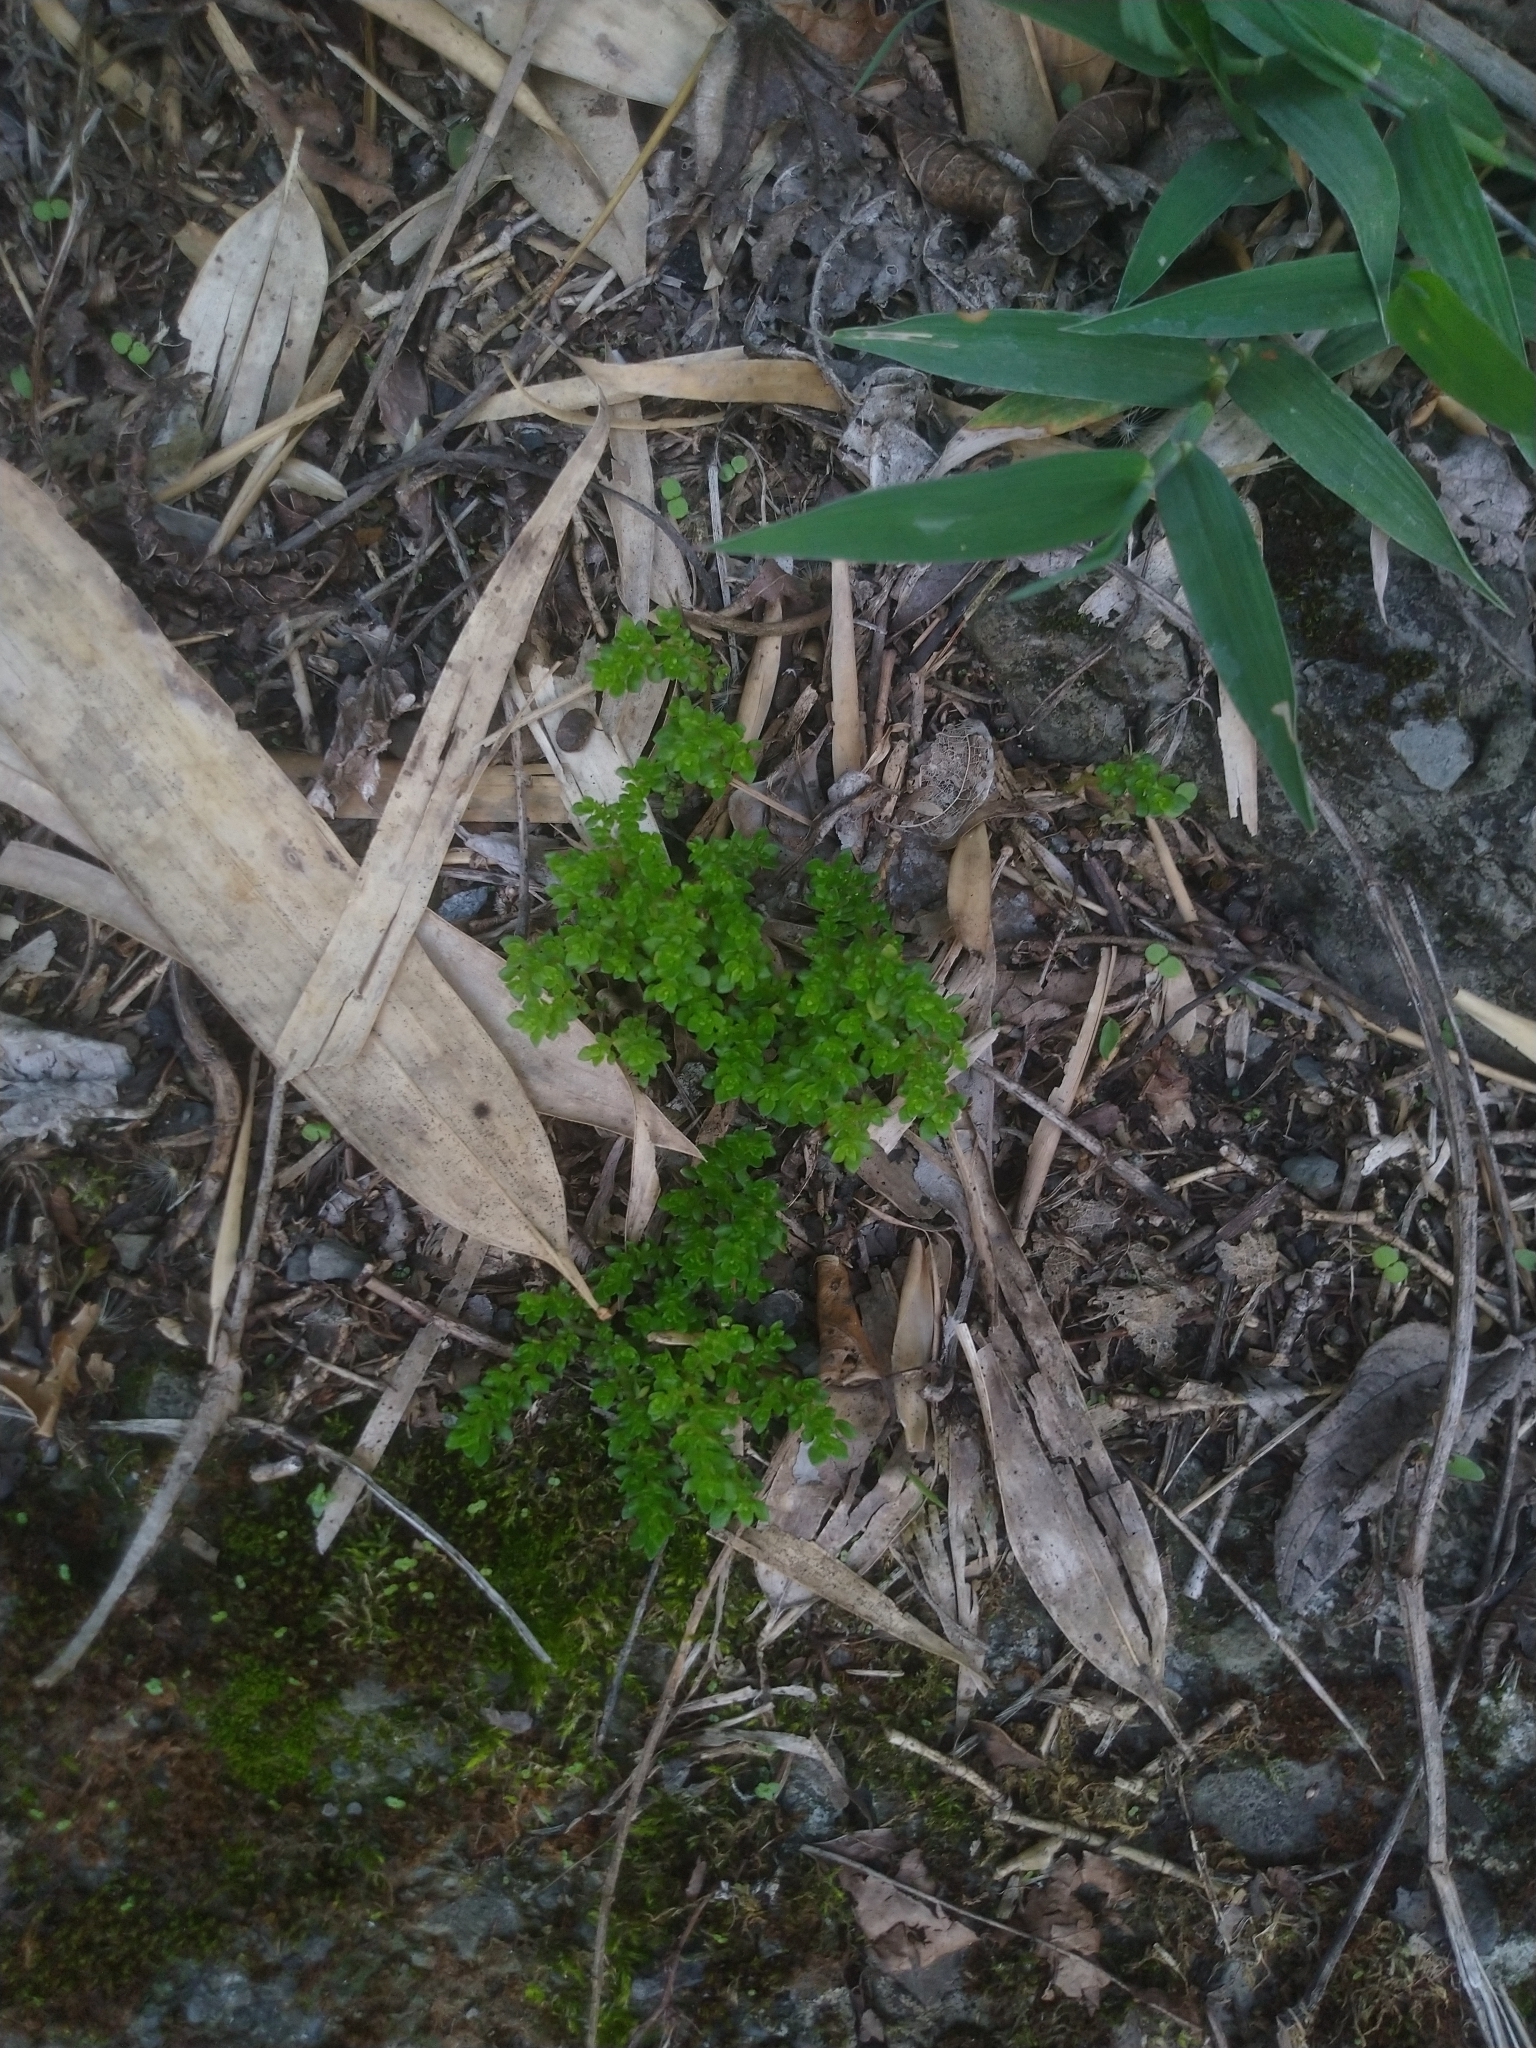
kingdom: Plantae
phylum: Tracheophyta
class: Magnoliopsida
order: Rosales
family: Urticaceae
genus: Pilea
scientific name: Pilea microphylla
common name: Artillery-plant
